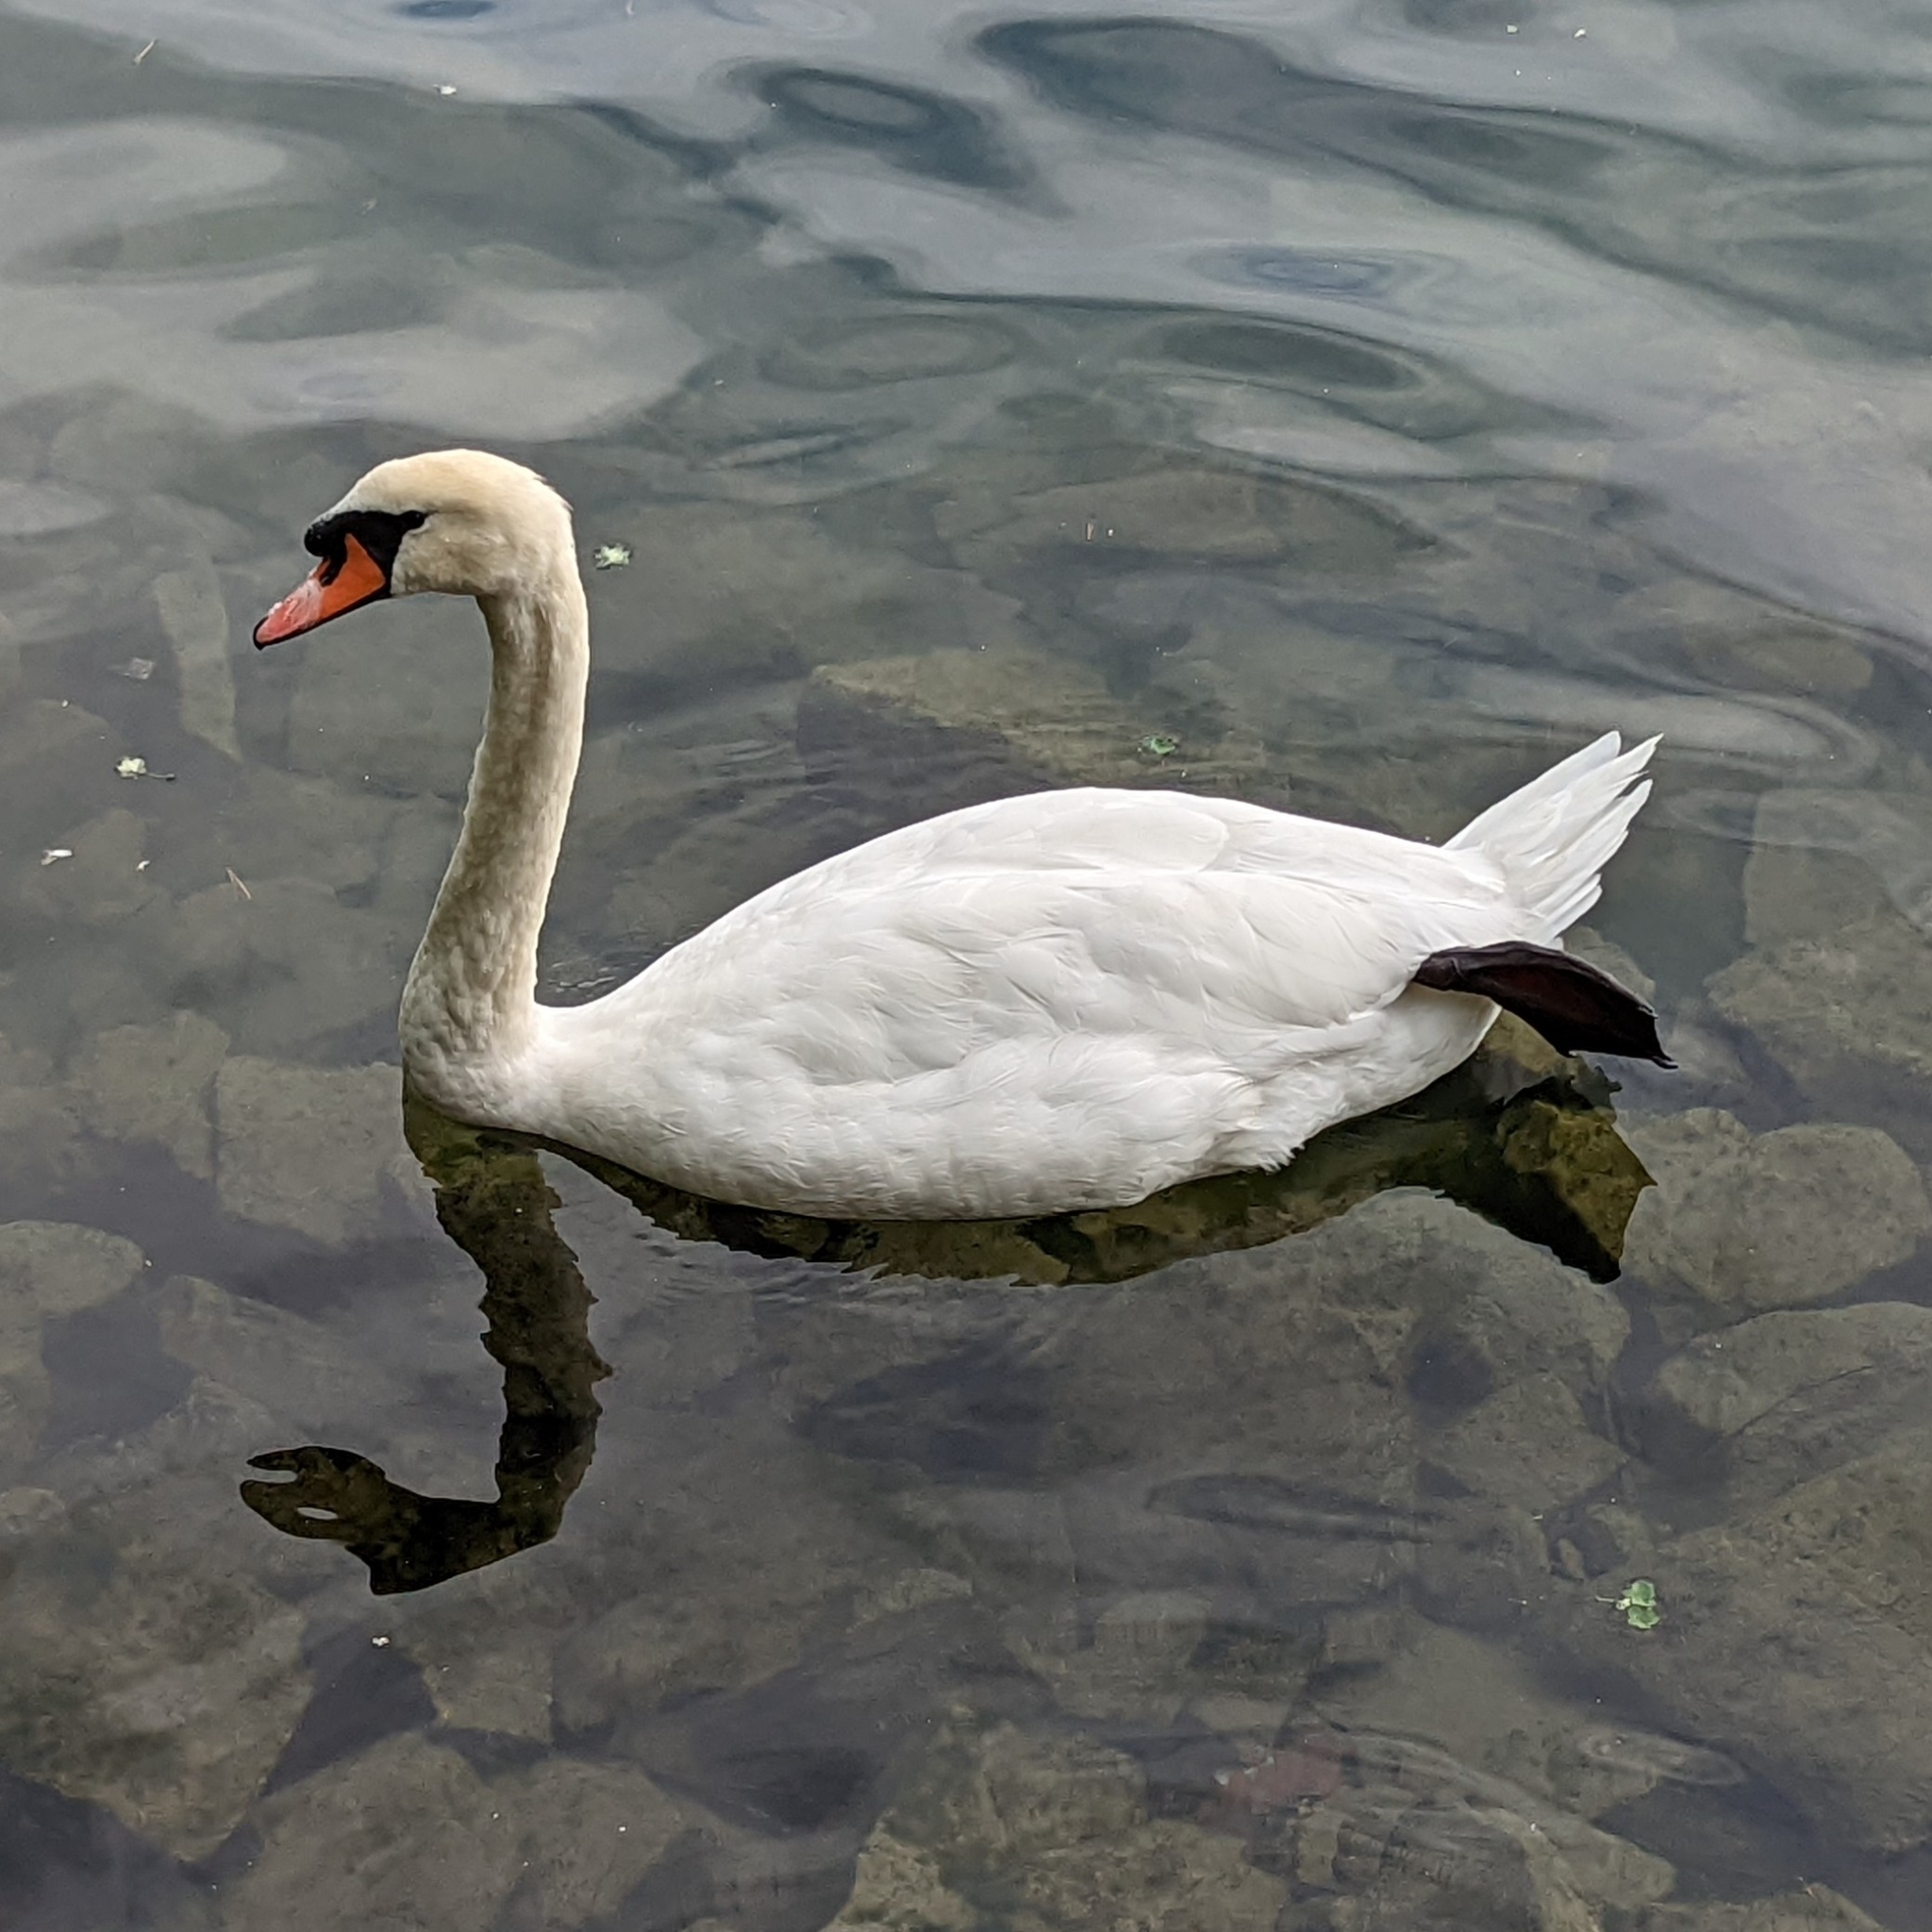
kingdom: Animalia
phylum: Chordata
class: Aves
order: Anseriformes
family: Anatidae
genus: Cygnus
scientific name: Cygnus olor
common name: Mute swan
